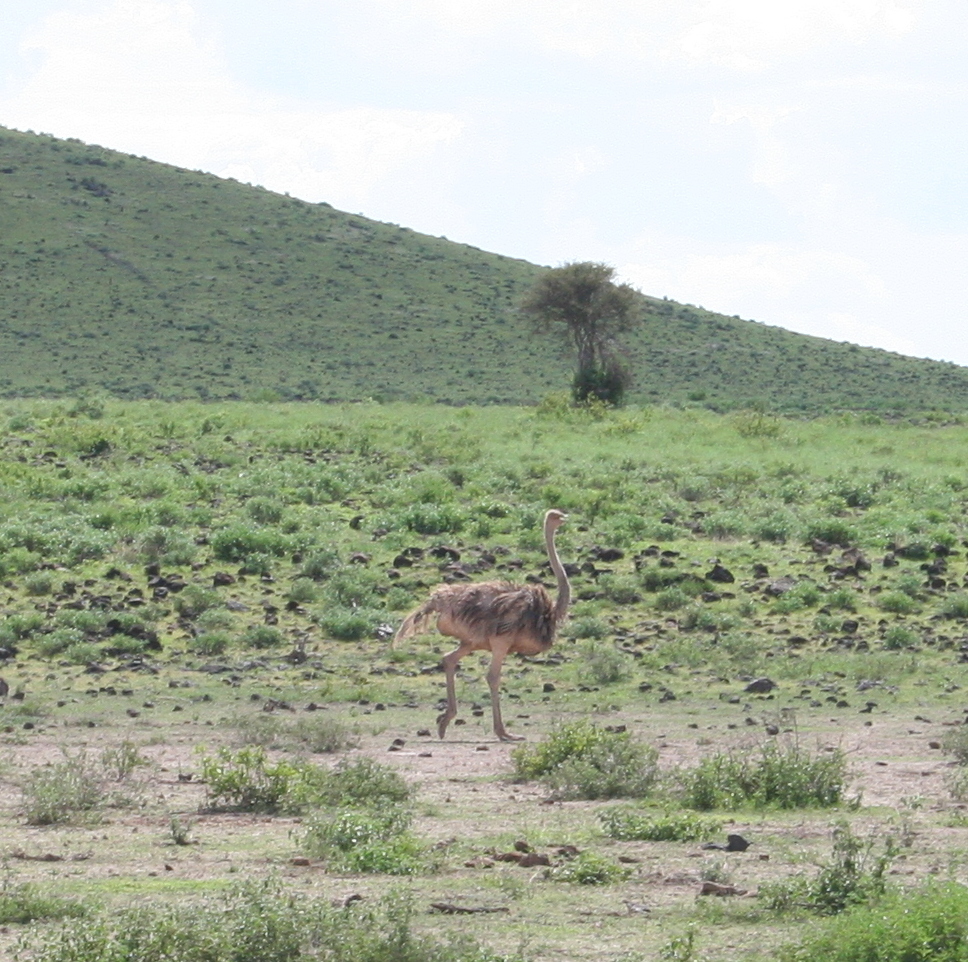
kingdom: Animalia
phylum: Chordata
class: Aves
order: Struthioniformes
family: Struthionidae
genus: Struthio
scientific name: Struthio camelus
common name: Common ostrich
